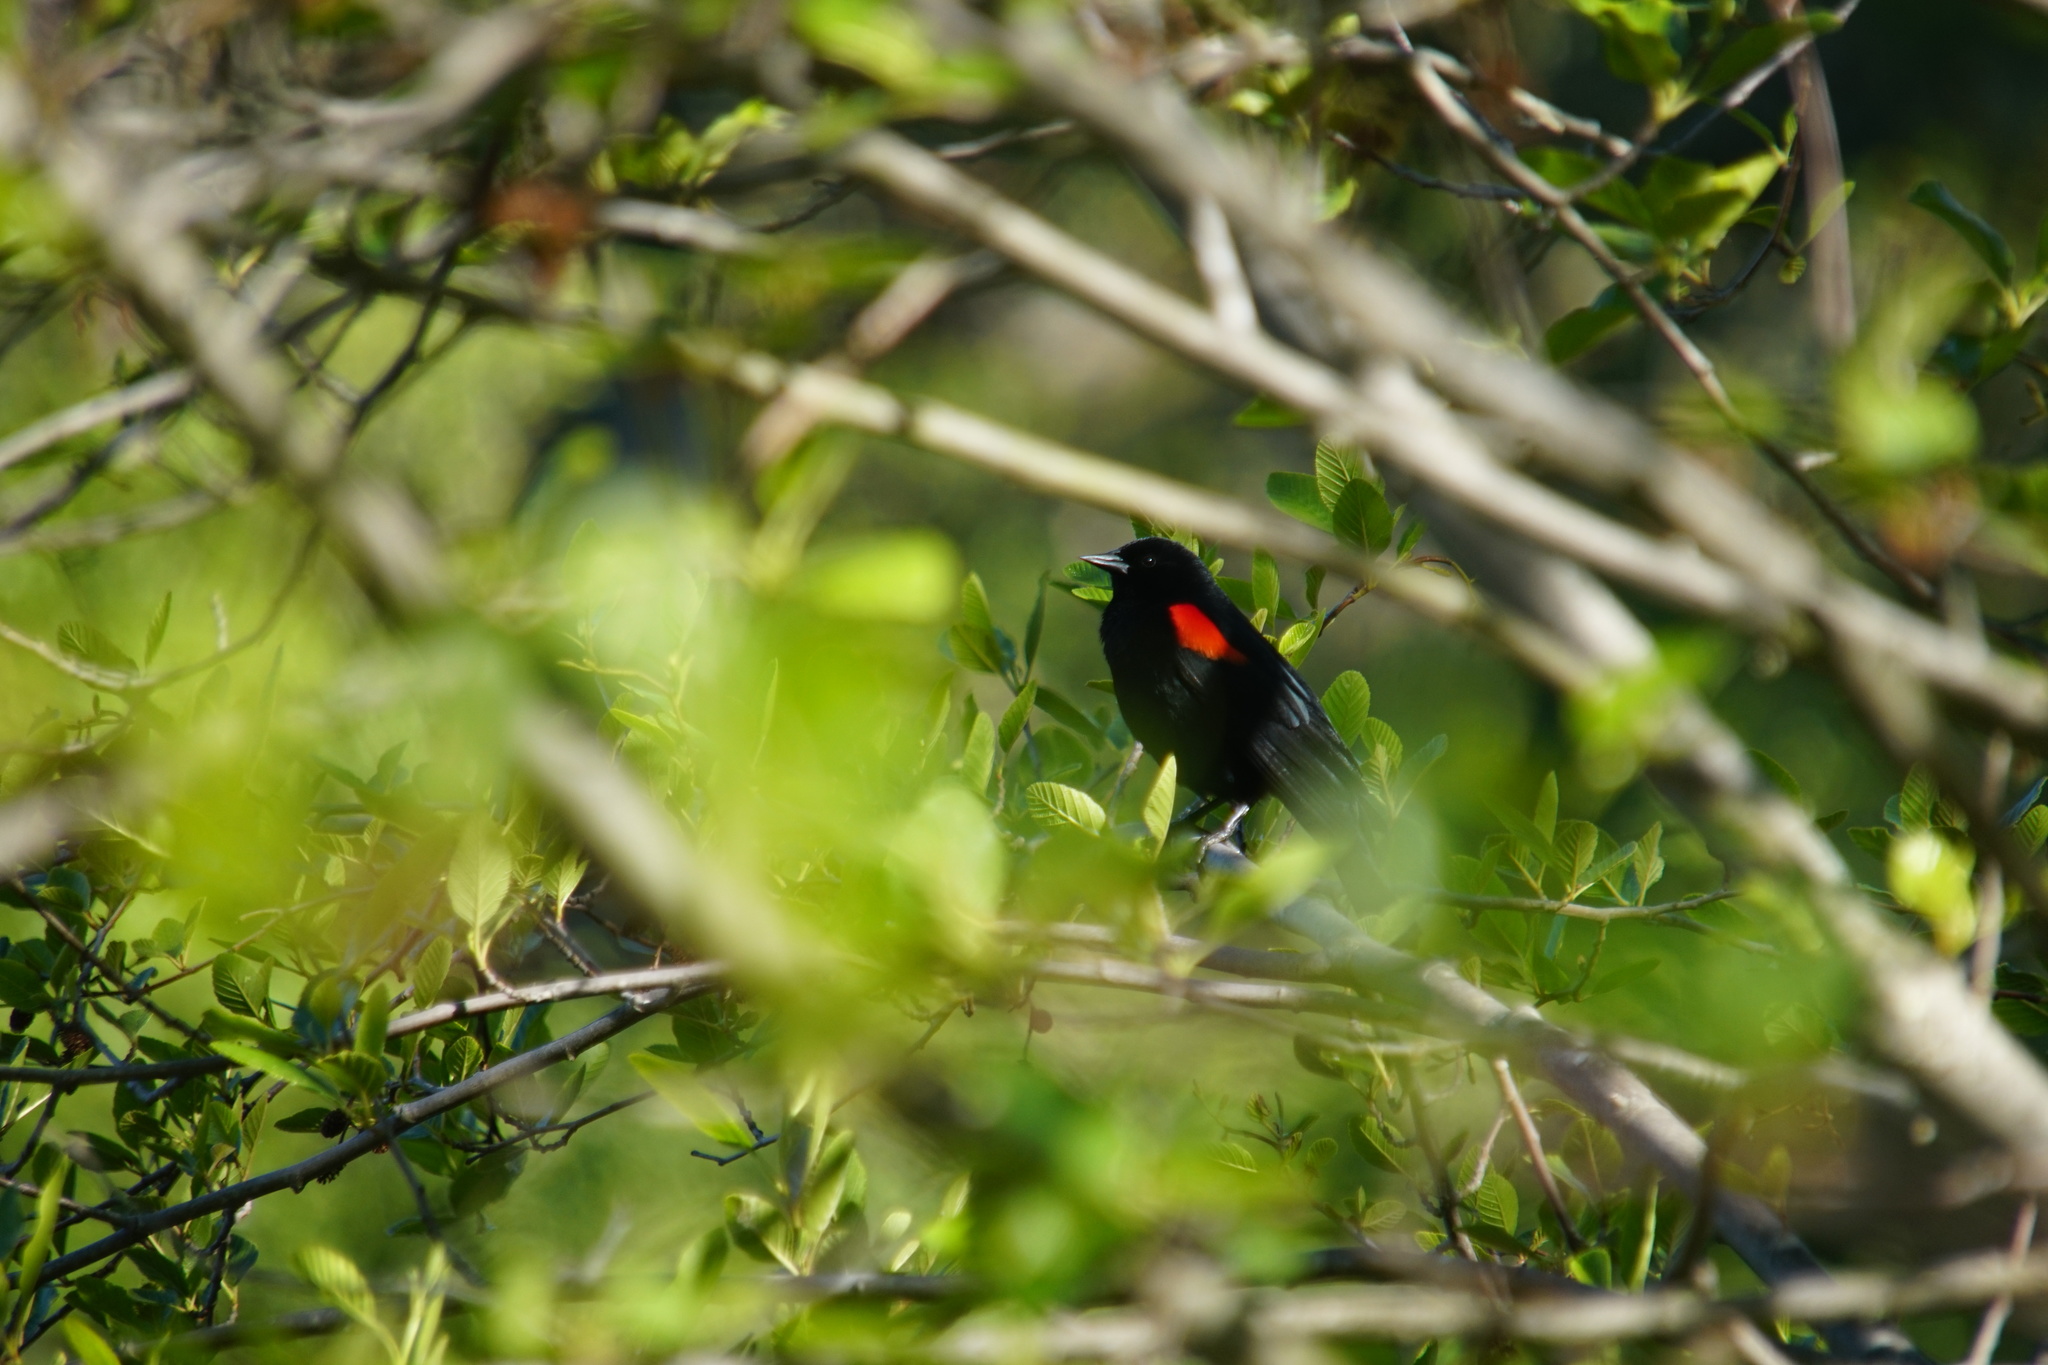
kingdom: Animalia
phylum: Chordata
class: Aves
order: Passeriformes
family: Icteridae
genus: Agelaius
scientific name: Agelaius phoeniceus
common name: Red-winged blackbird
